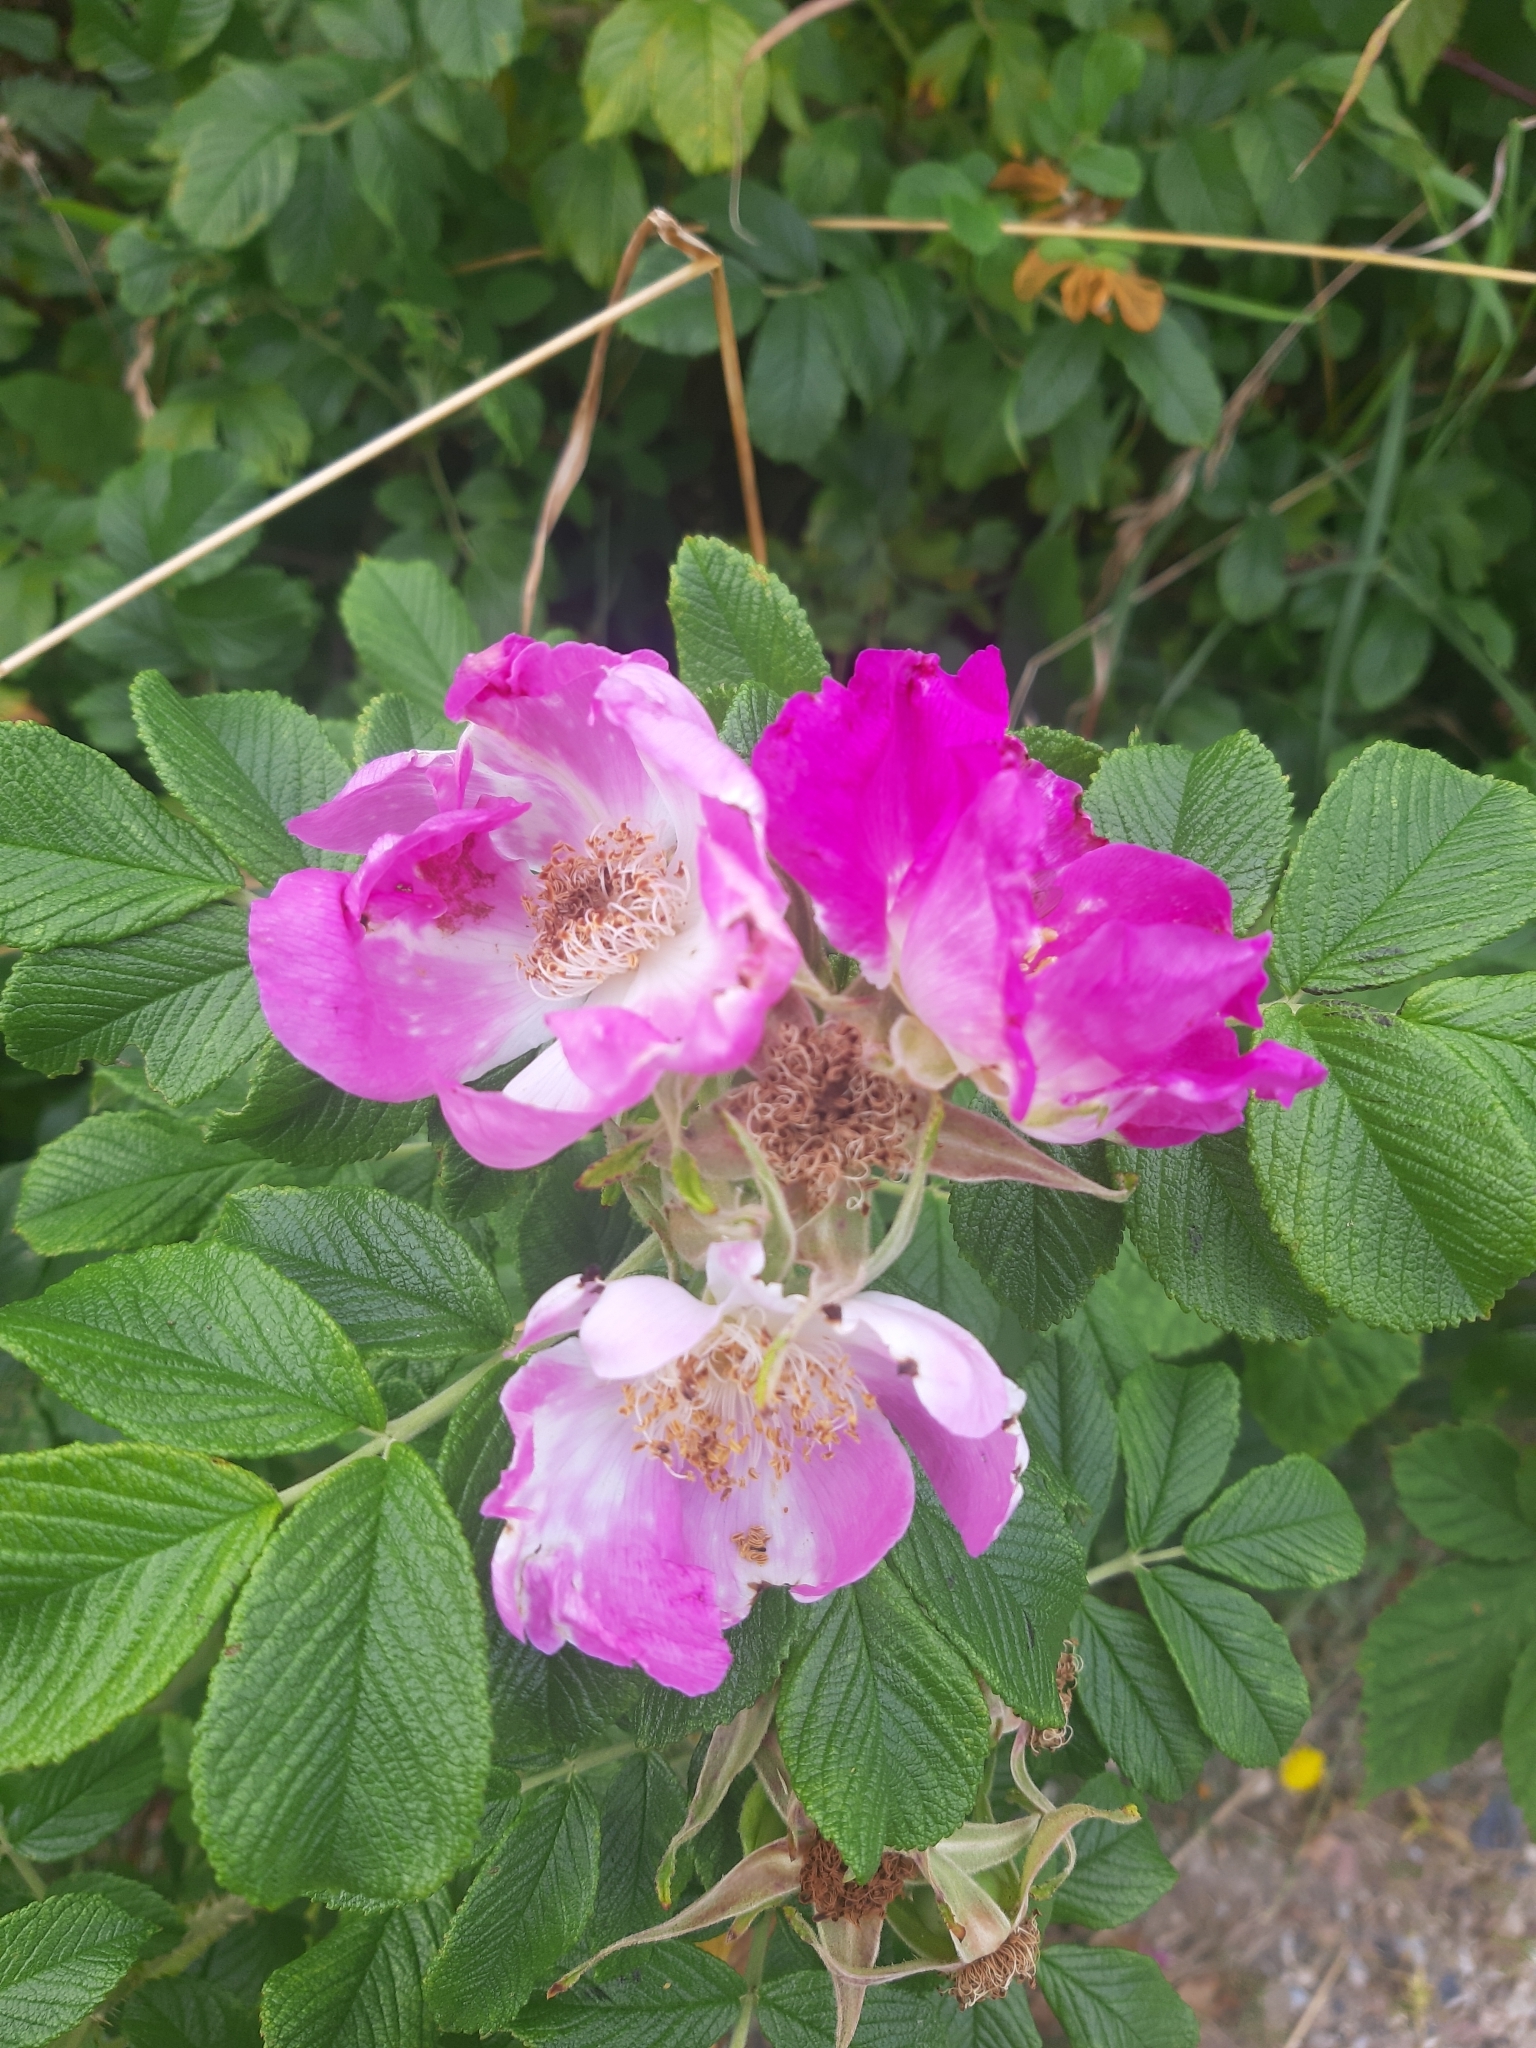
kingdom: Plantae
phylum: Tracheophyta
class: Magnoliopsida
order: Rosales
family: Rosaceae
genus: Rosa
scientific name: Rosa rugosa
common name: Japanese rose
